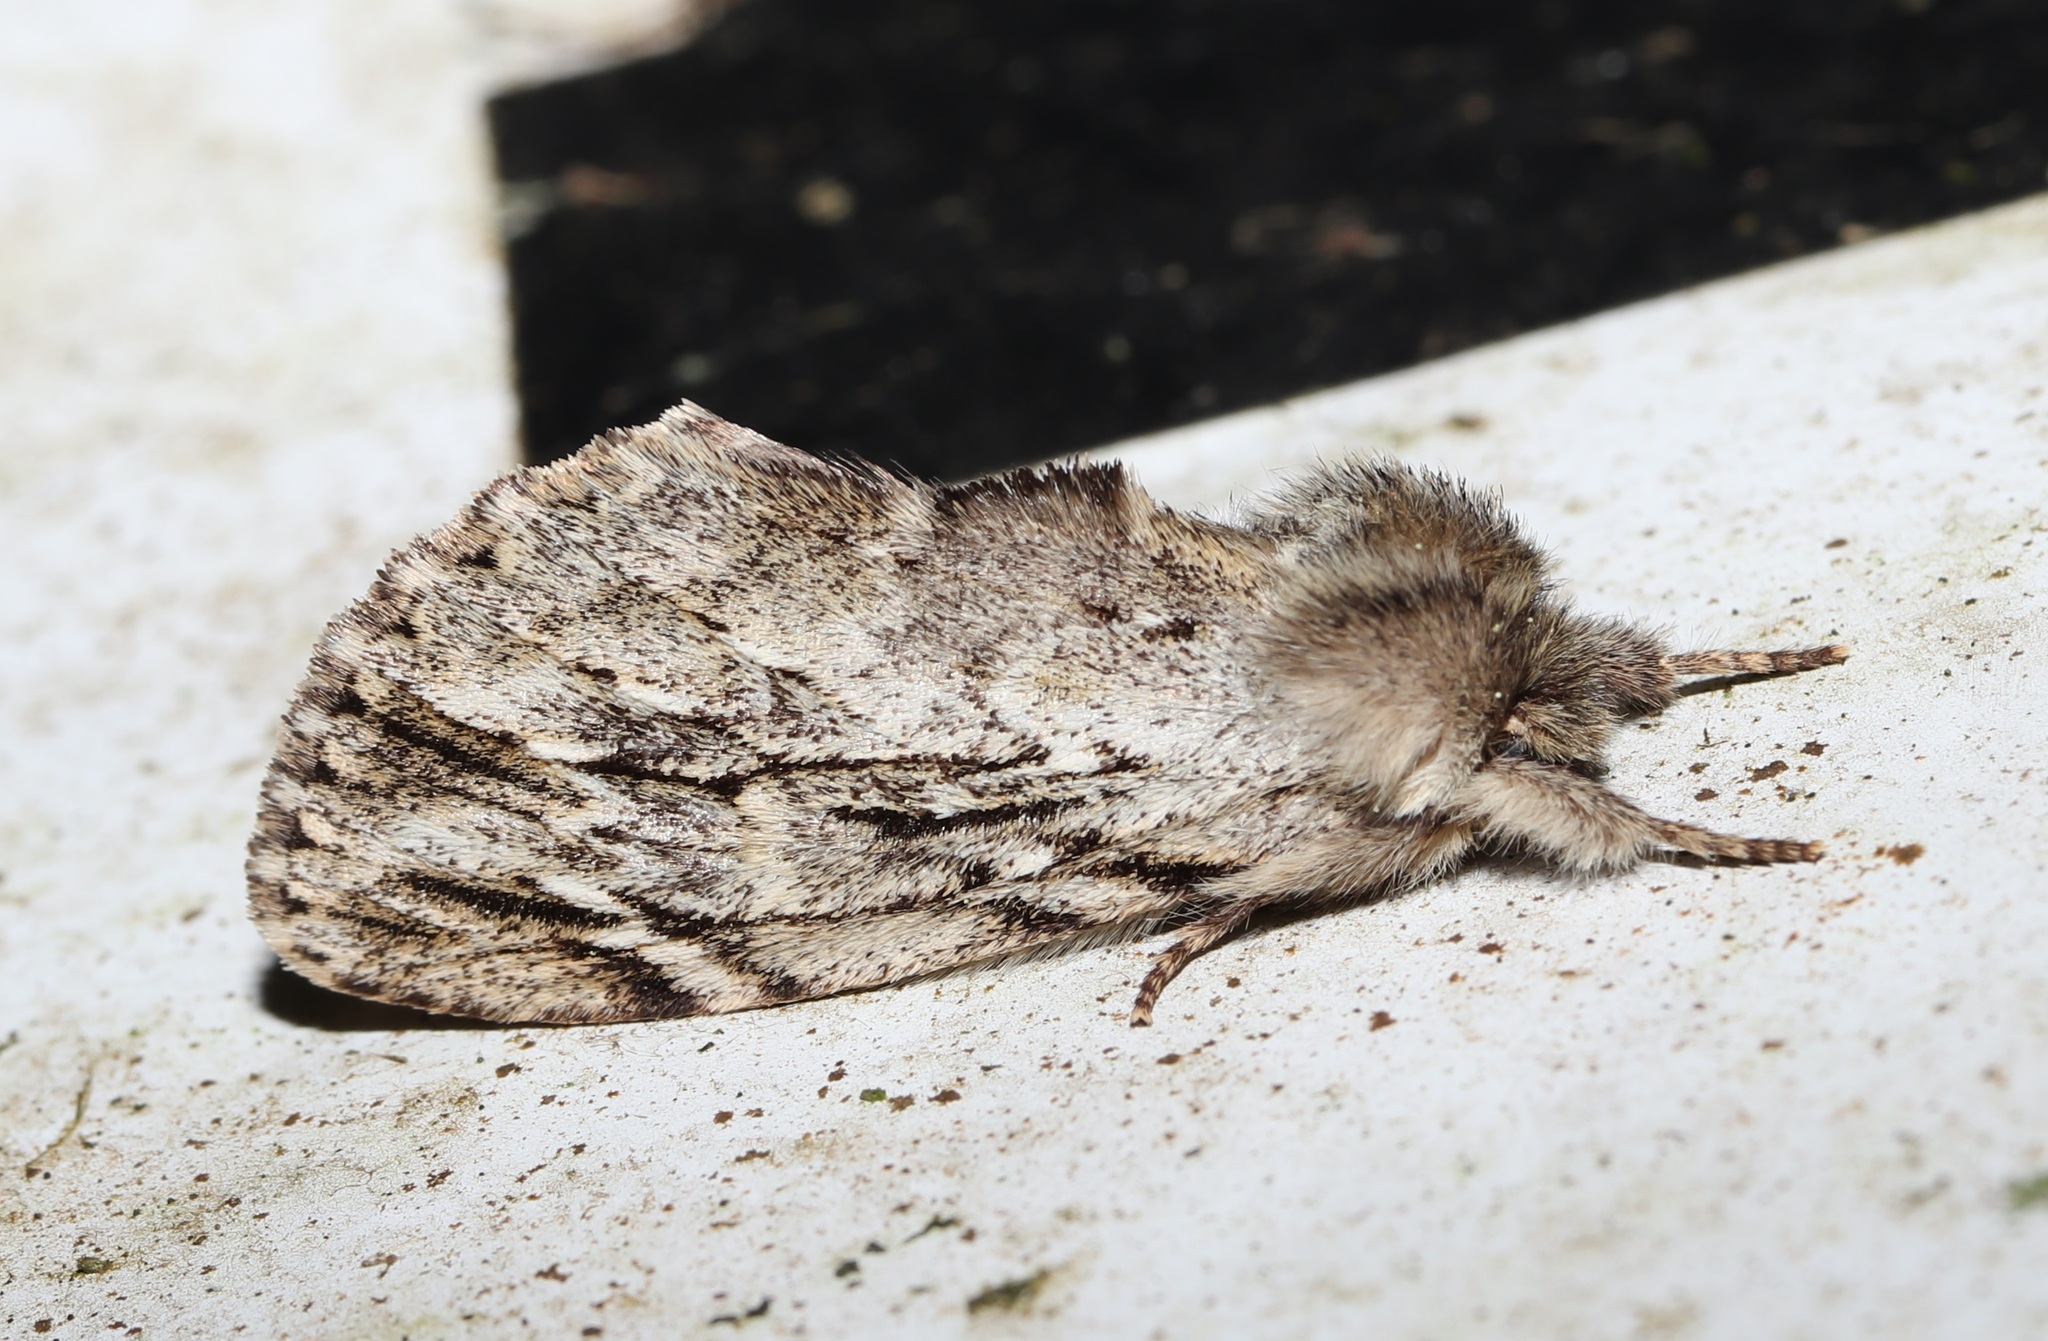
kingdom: Animalia
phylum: Arthropoda
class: Insecta
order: Lepidoptera
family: Notodontidae
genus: Ptilodon
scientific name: Ptilodon grisea
